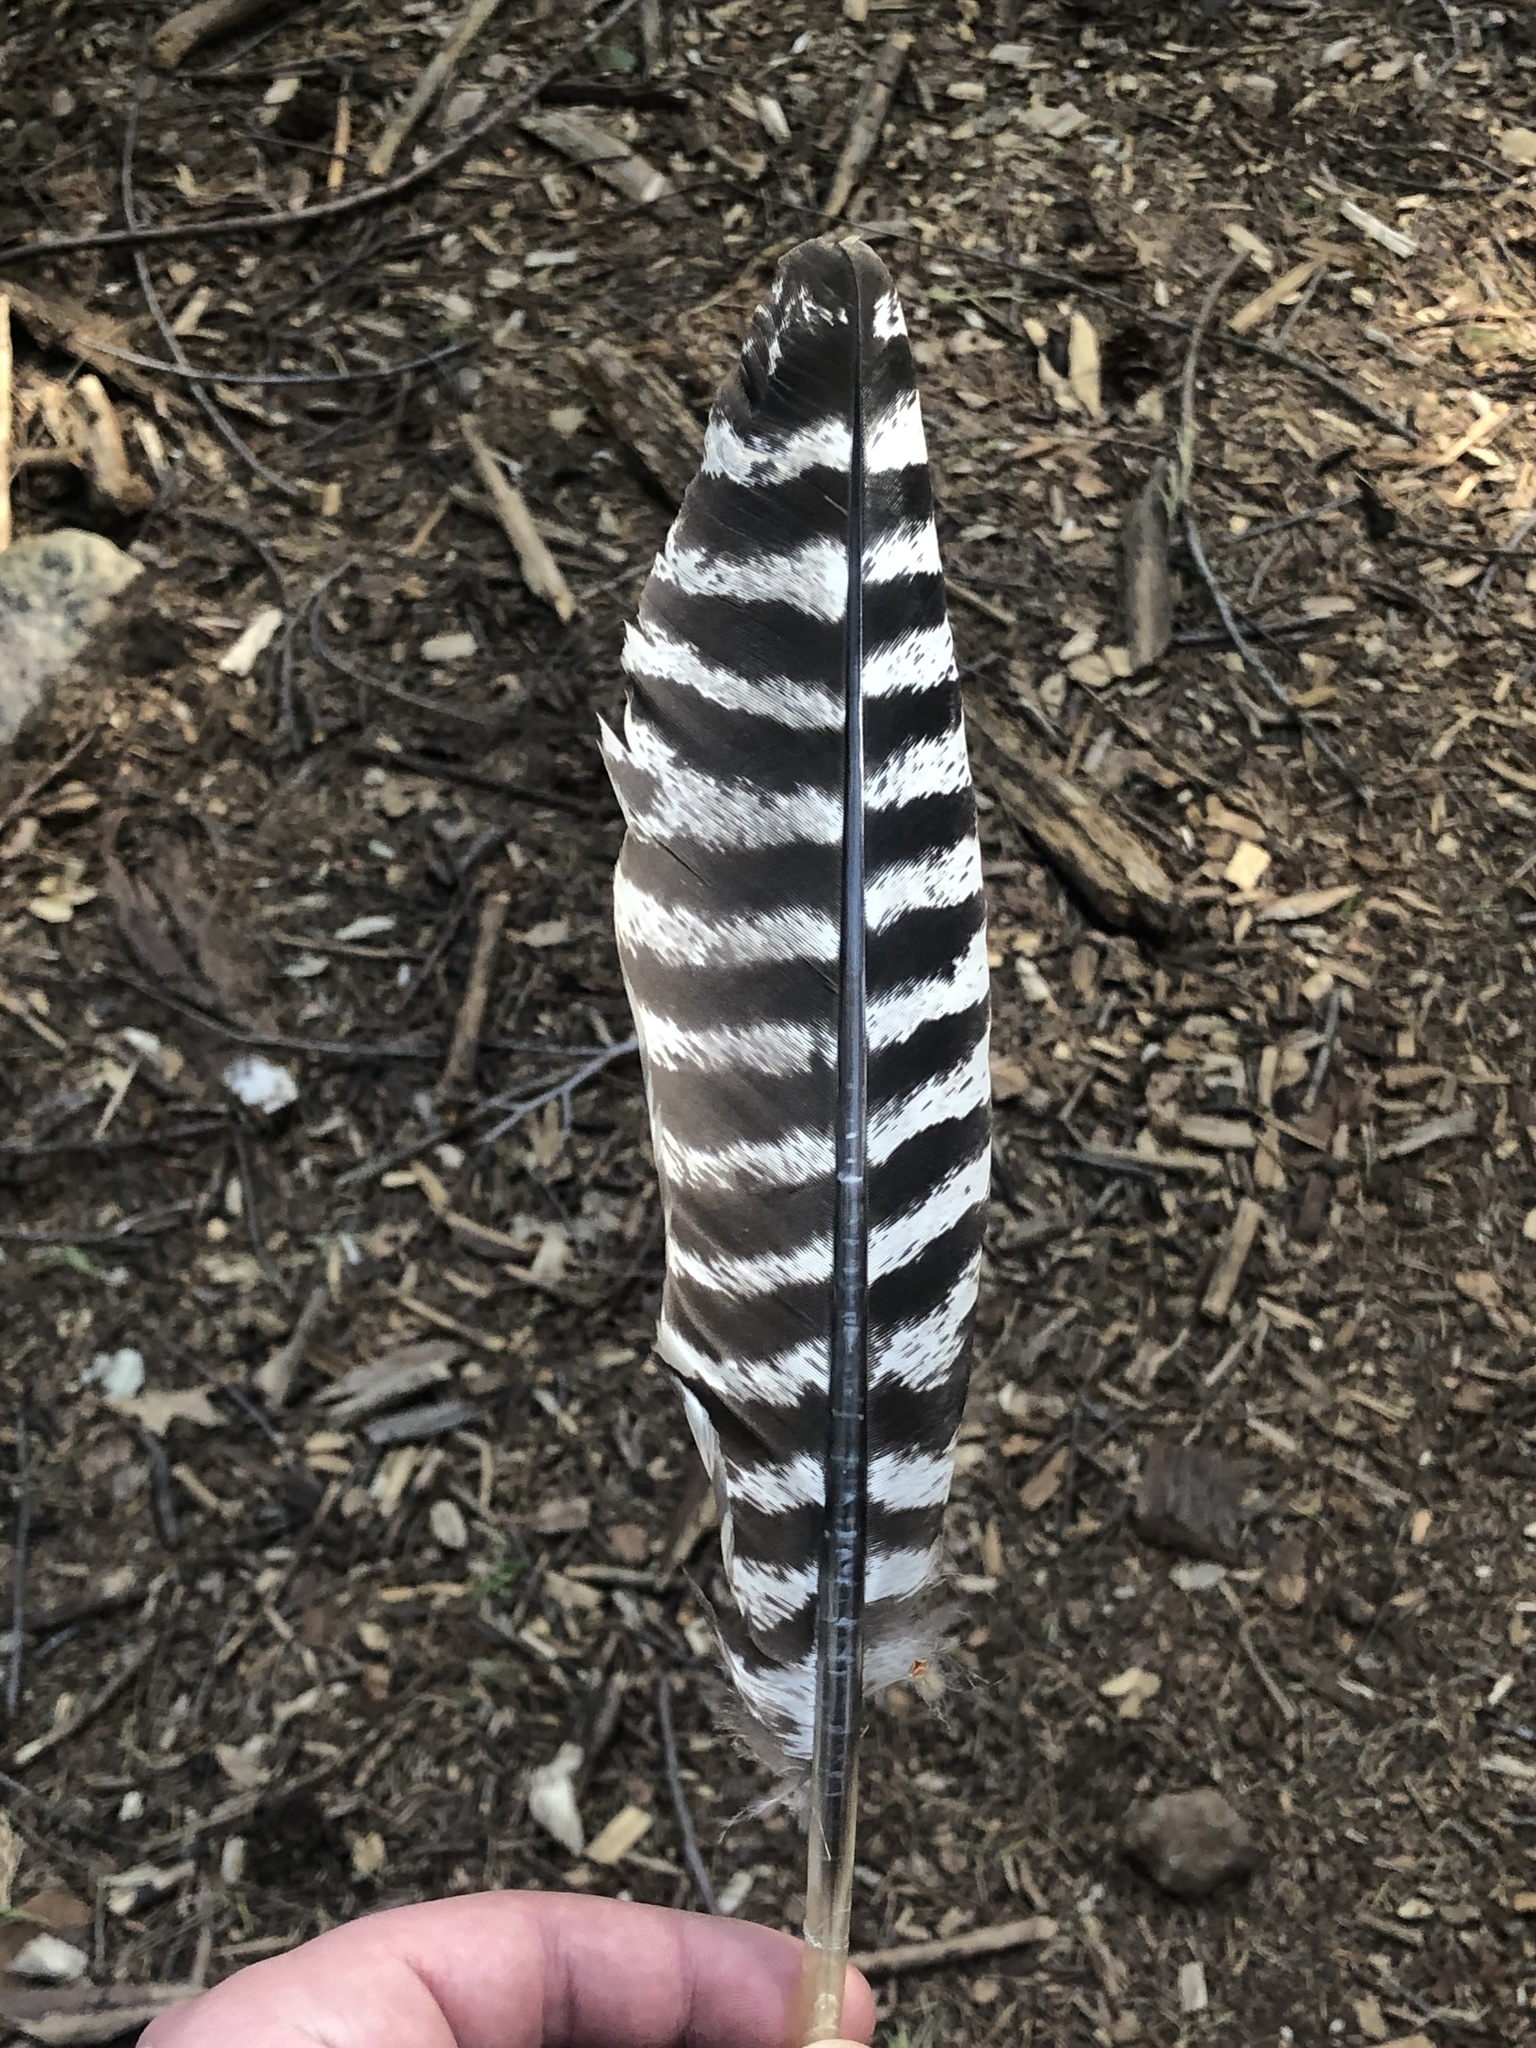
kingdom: Animalia
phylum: Chordata
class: Aves
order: Galliformes
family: Phasianidae
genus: Meleagris
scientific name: Meleagris gallopavo
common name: Wild turkey
